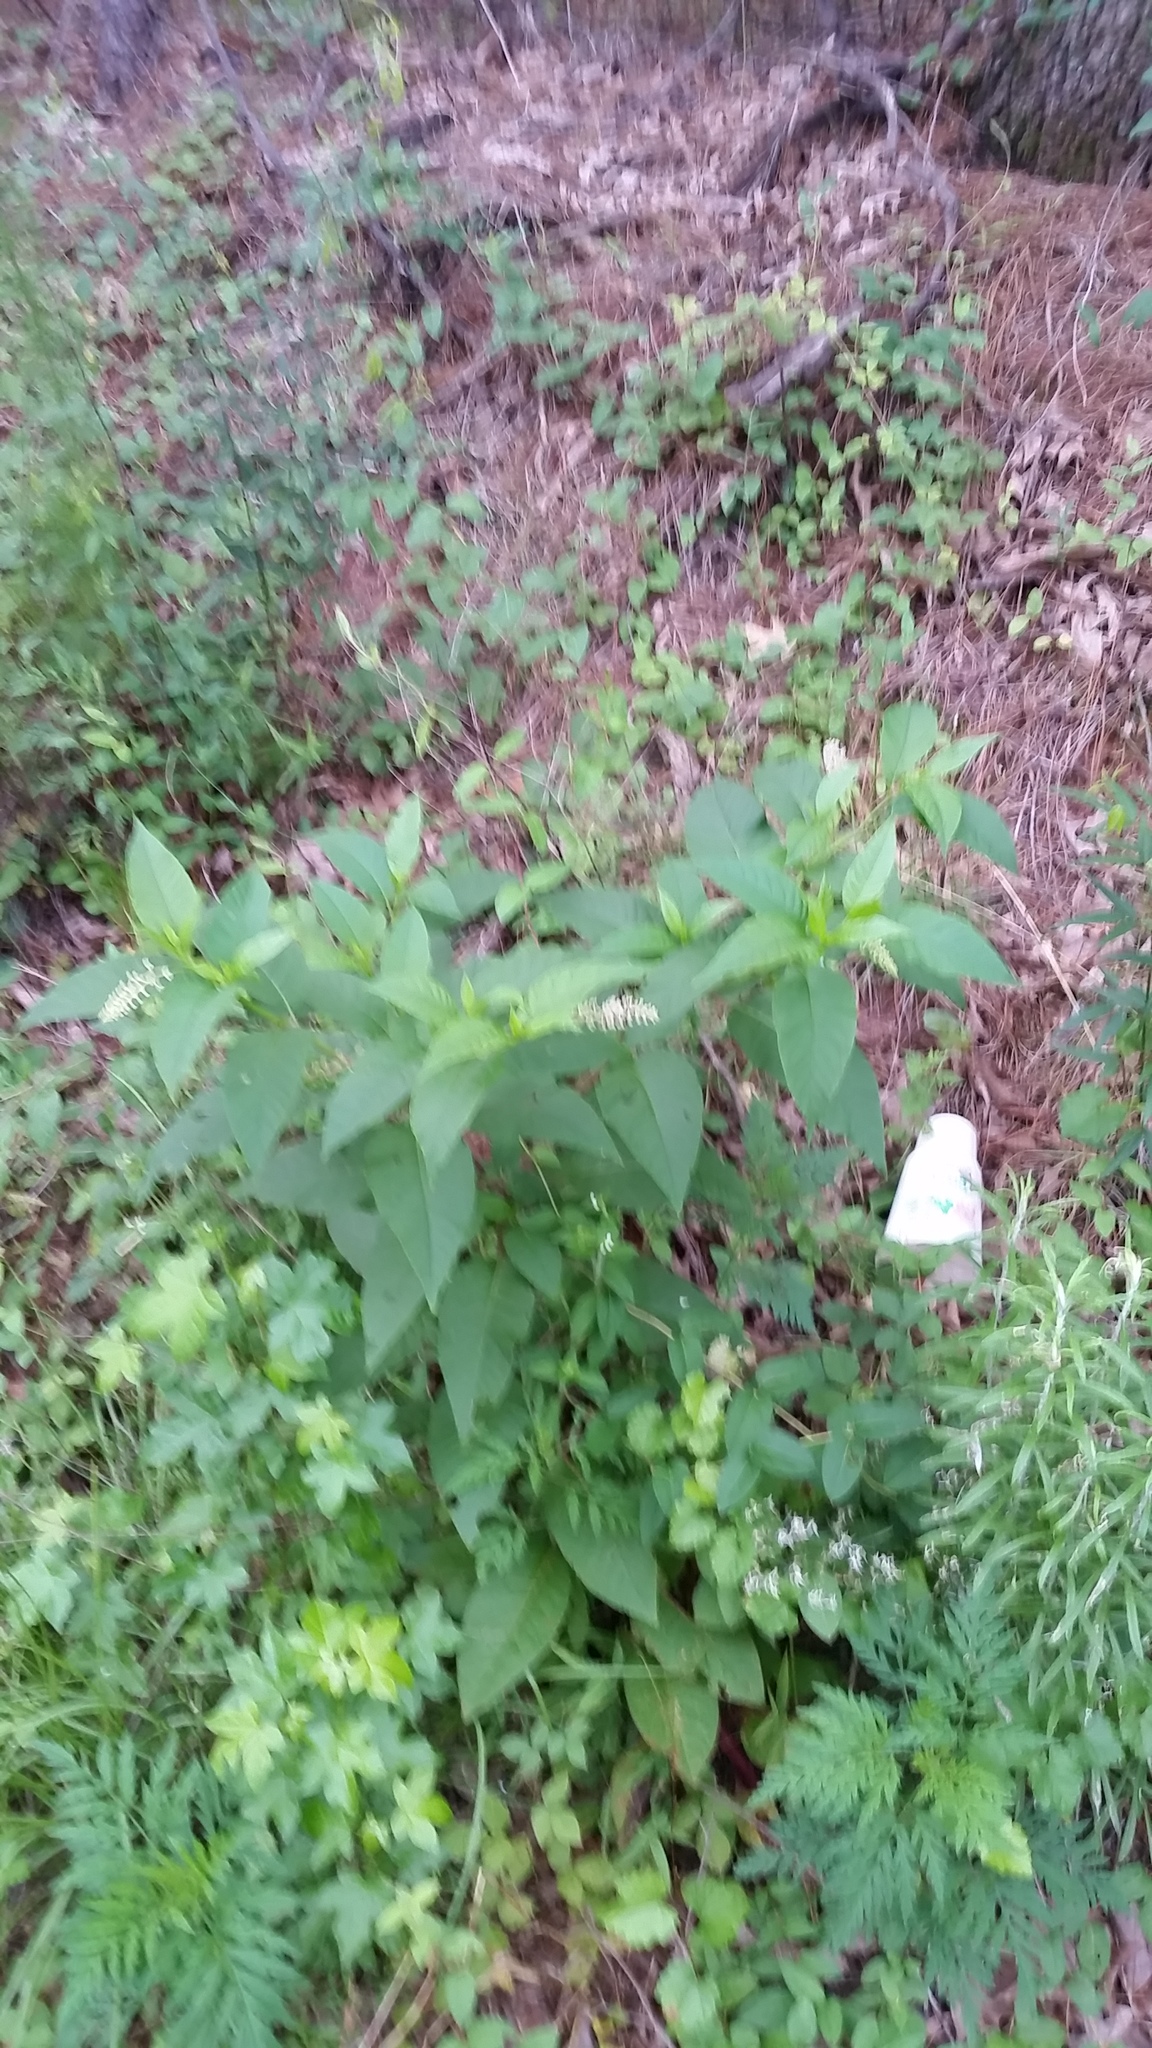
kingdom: Plantae
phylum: Tracheophyta
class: Magnoliopsida
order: Caryophyllales
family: Phytolaccaceae
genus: Phytolacca
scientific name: Phytolacca americana
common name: American pokeweed
